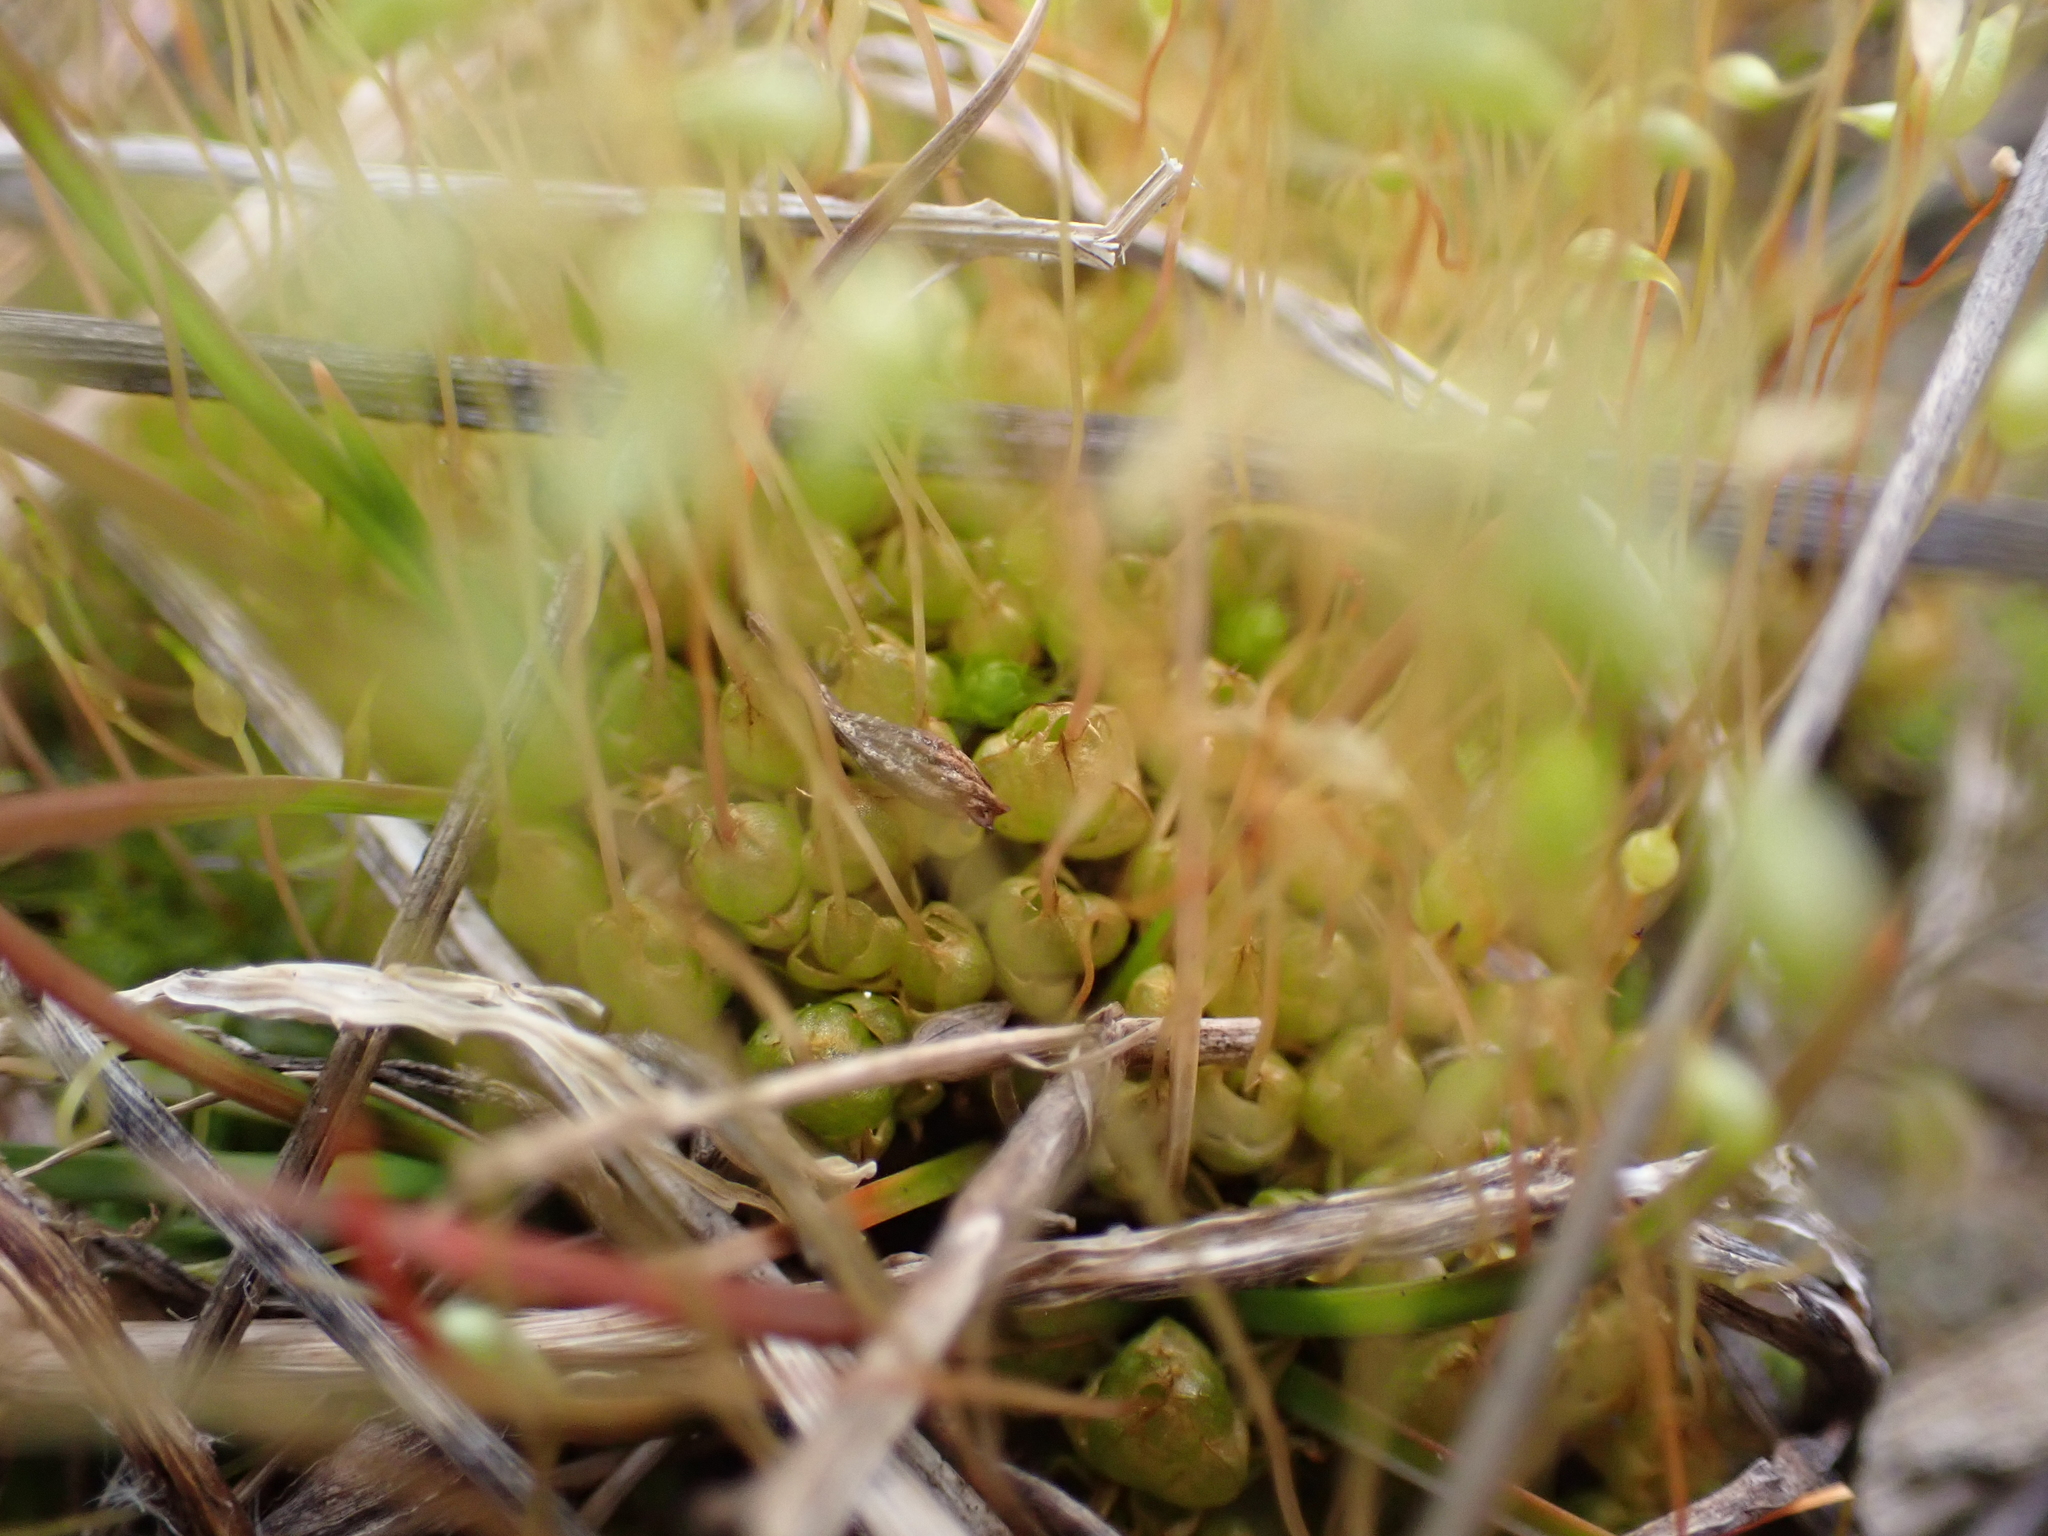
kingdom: Plantae
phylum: Bryophyta
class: Bryopsida
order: Funariales
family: Funariaceae
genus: Funaria
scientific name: Funaria hygrometrica
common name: Common cord moss
